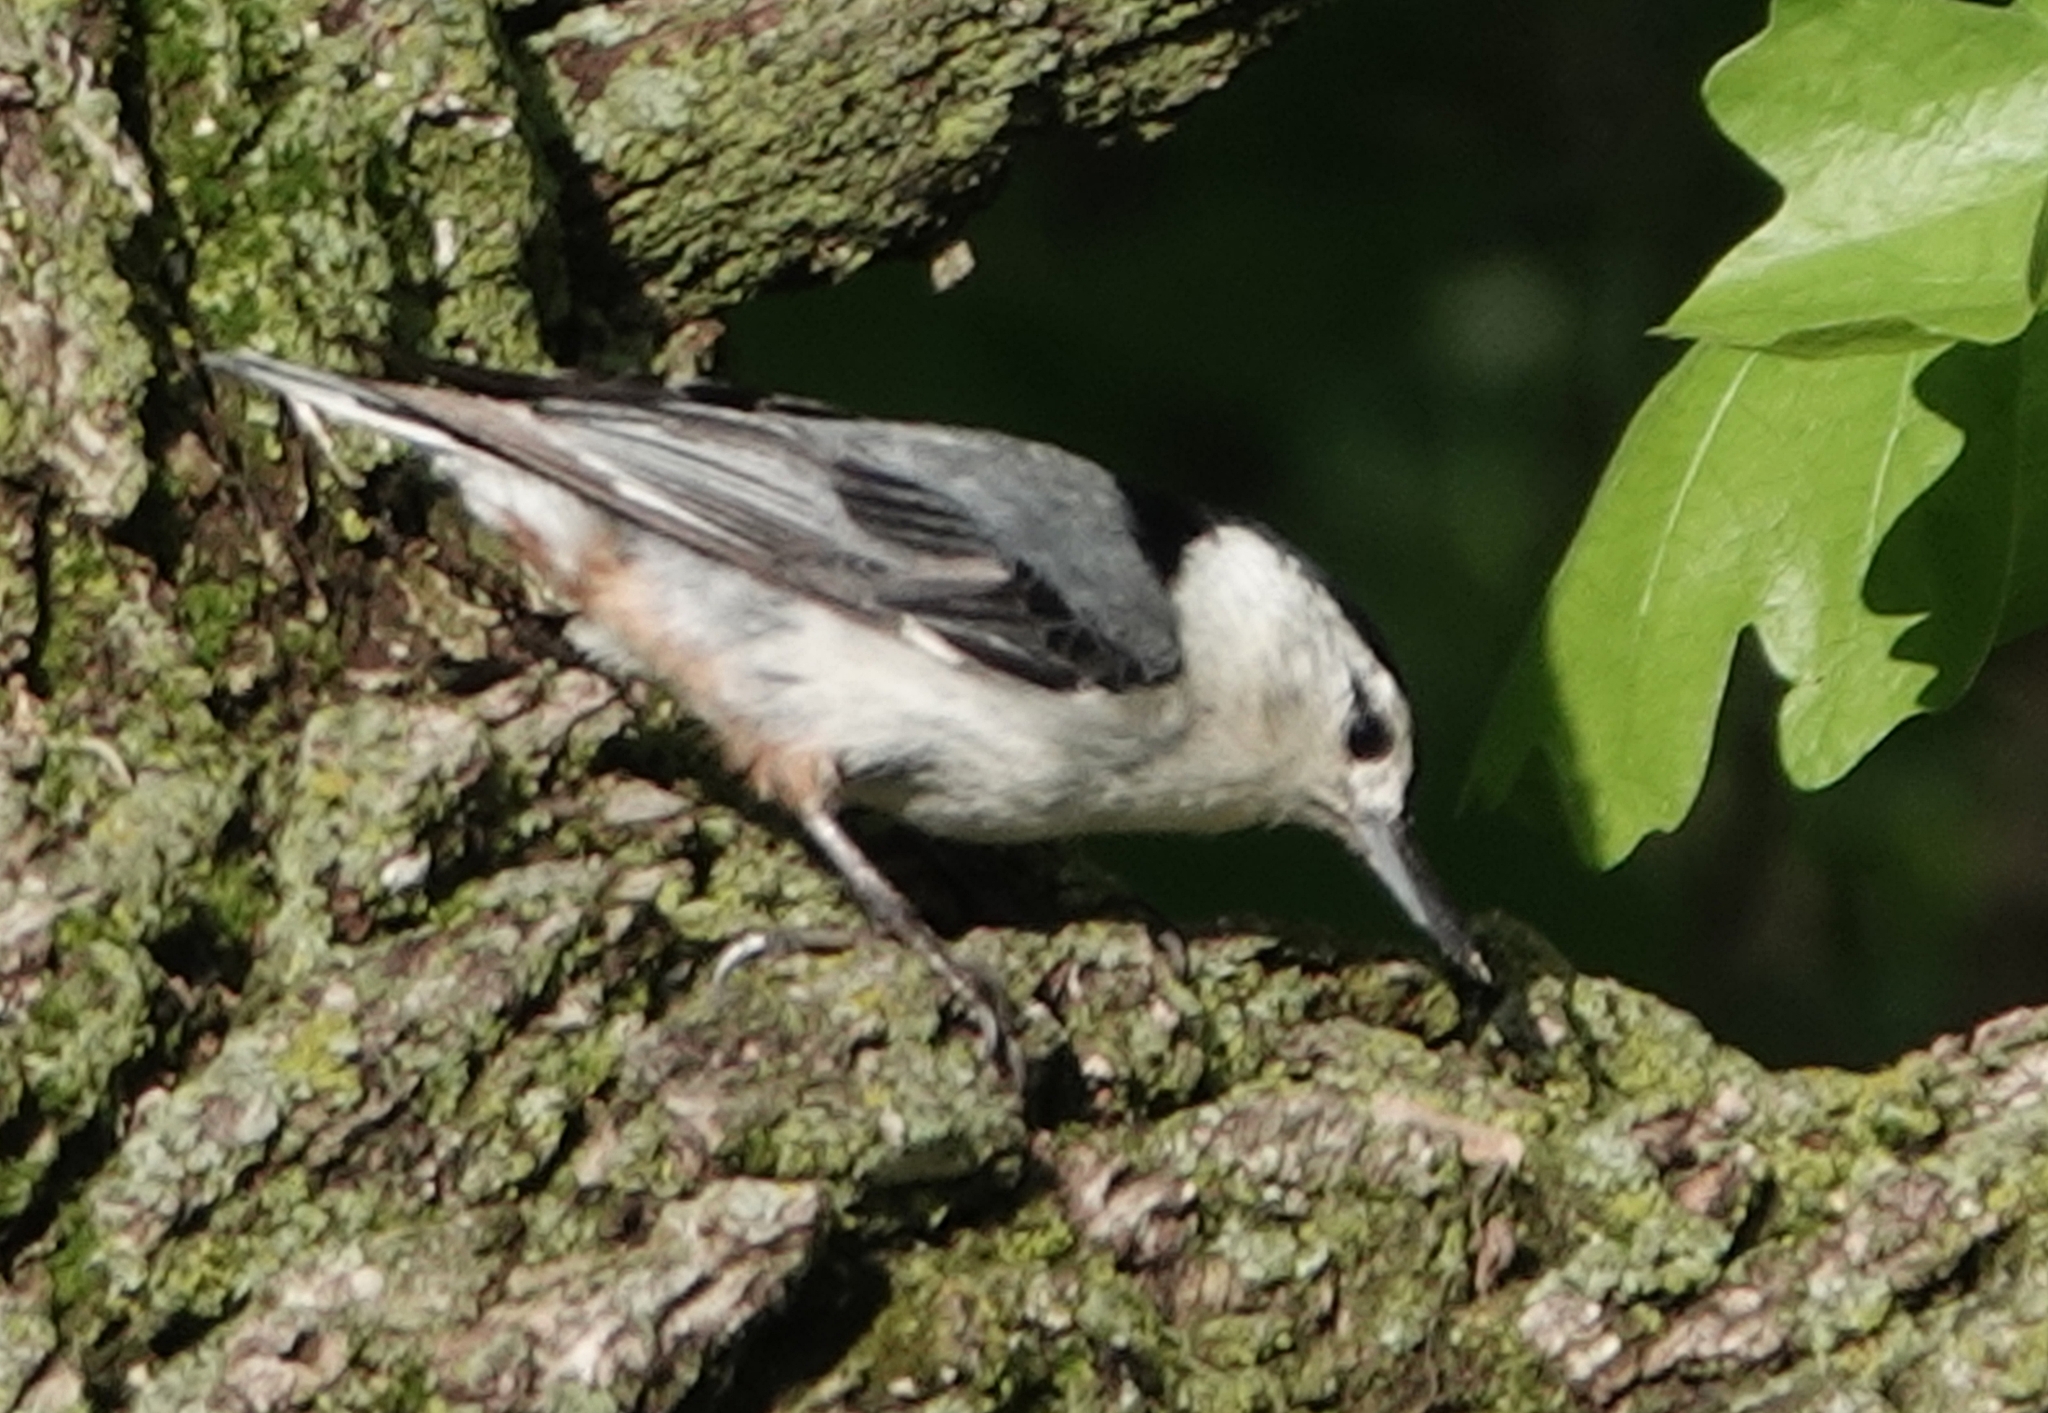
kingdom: Animalia
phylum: Chordata
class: Aves
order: Passeriformes
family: Sittidae
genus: Sitta
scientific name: Sitta carolinensis
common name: White-breasted nuthatch
